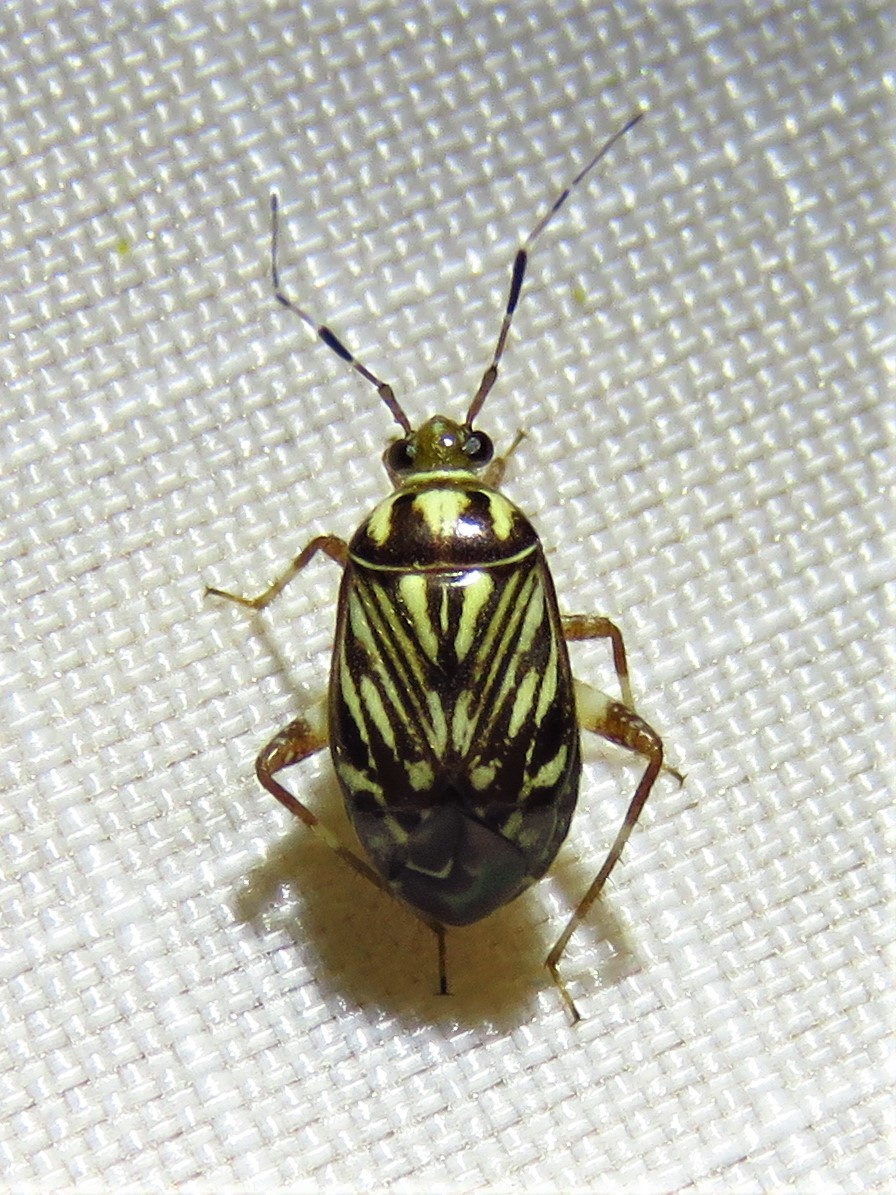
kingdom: Animalia
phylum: Arthropoda
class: Insecta
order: Hemiptera
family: Miridae
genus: Taedia
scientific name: Taedia virgulata
